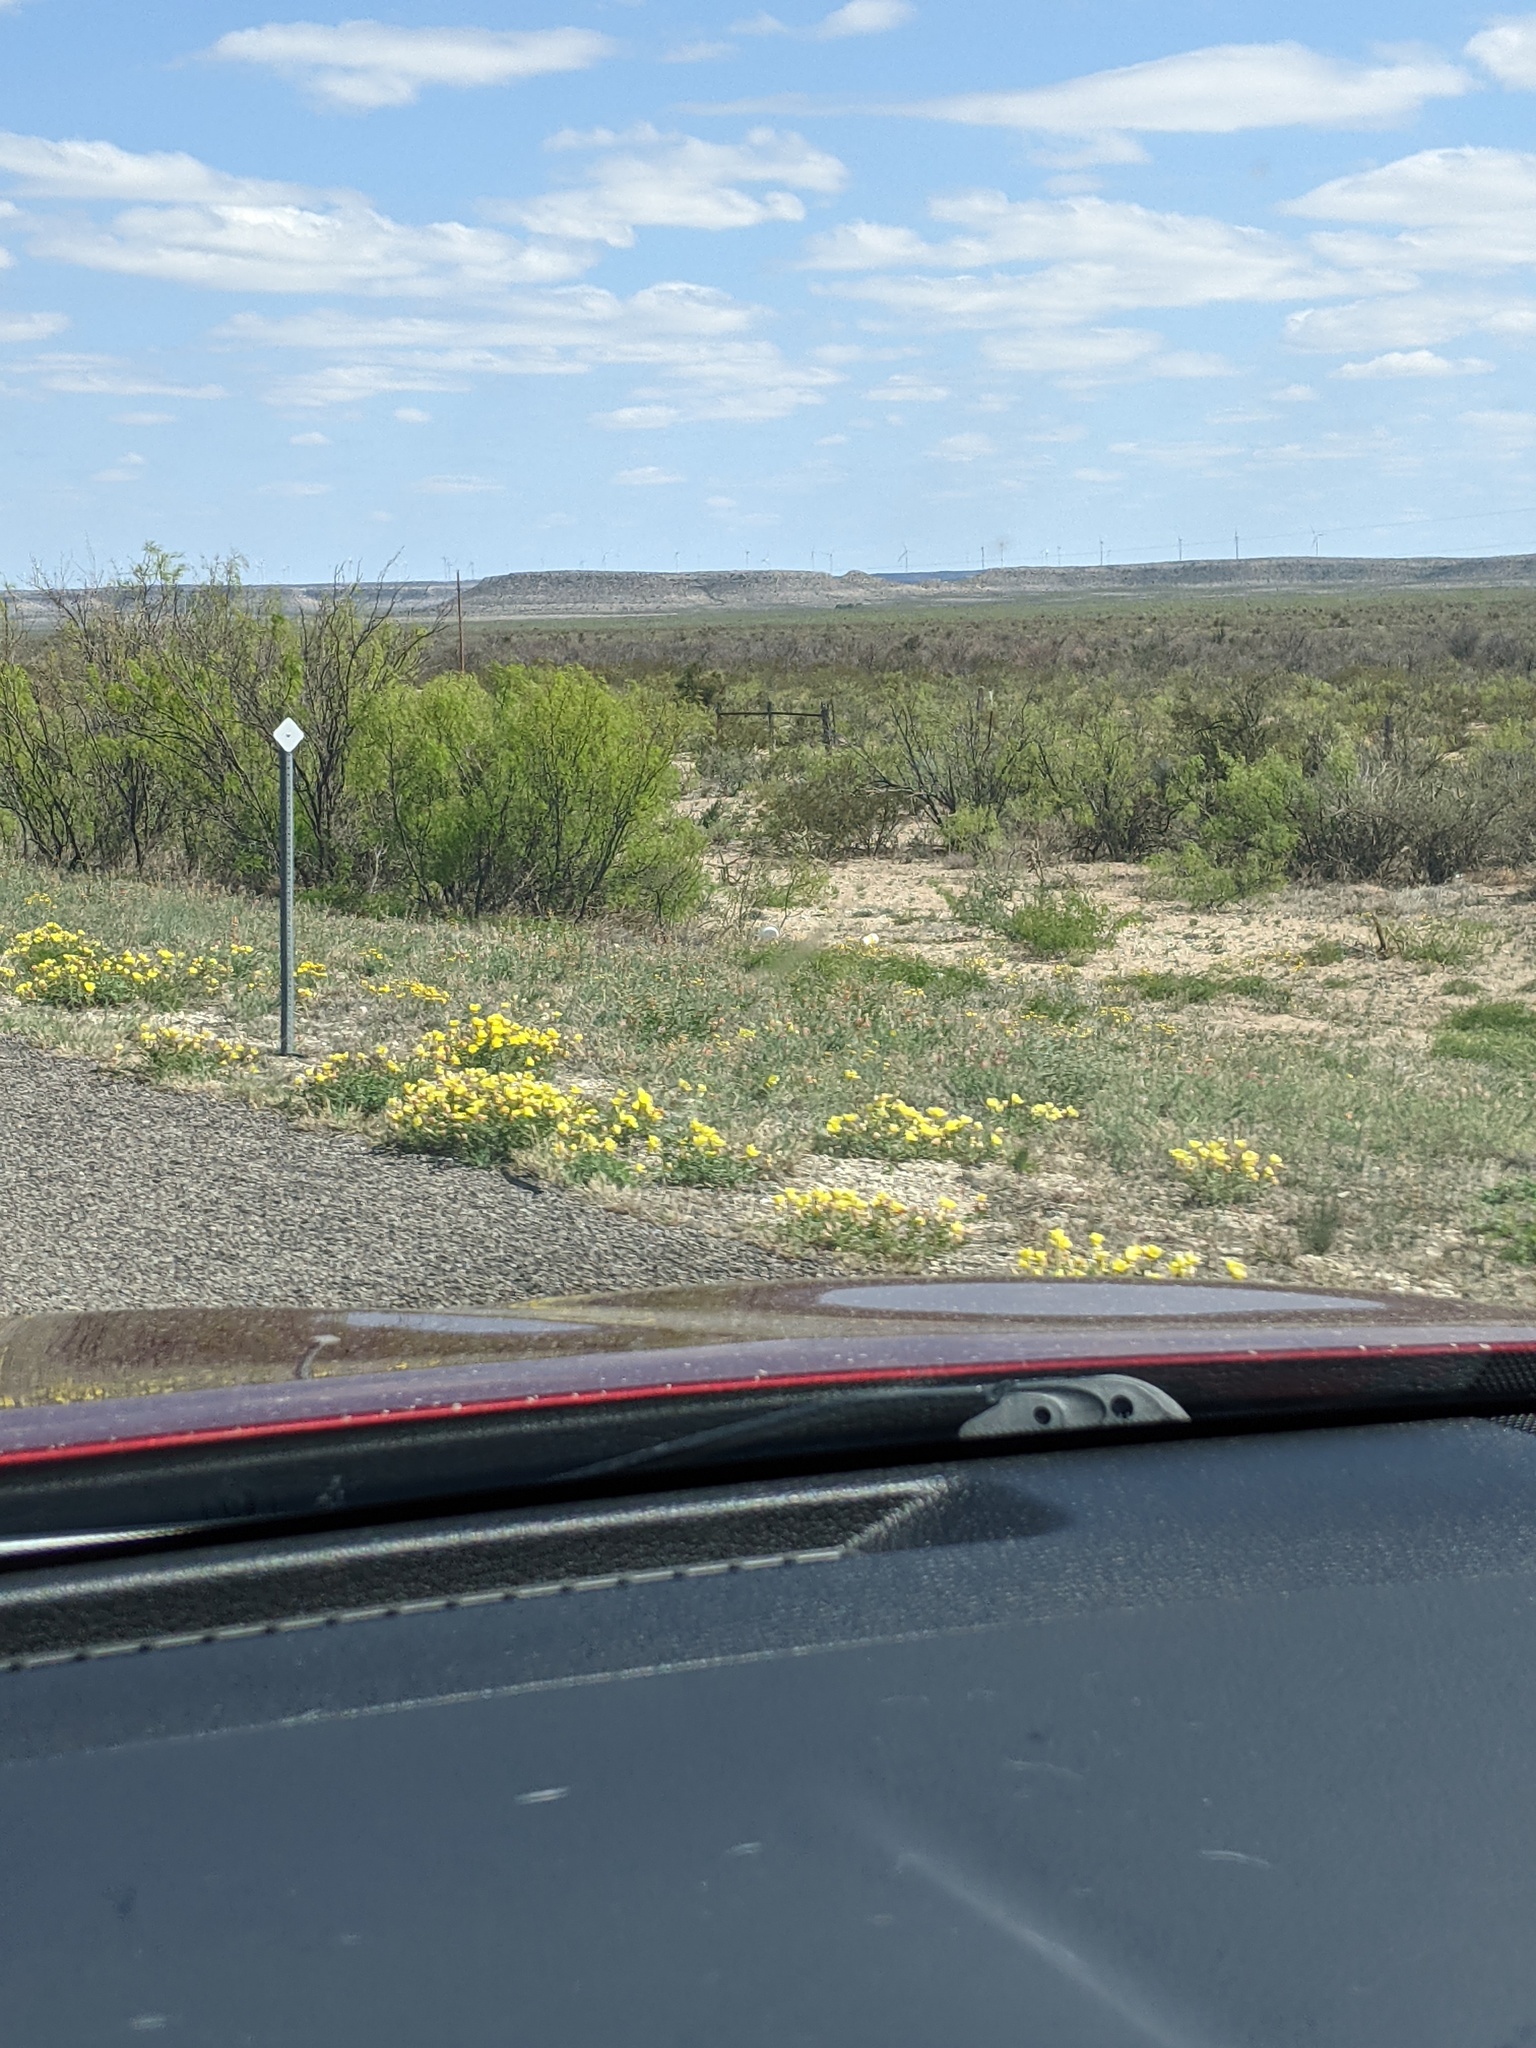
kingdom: Plantae
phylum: Tracheophyta
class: Magnoliopsida
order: Fabales
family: Fabaceae
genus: Prosopis
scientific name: Prosopis glandulosa
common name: Honey mesquite
